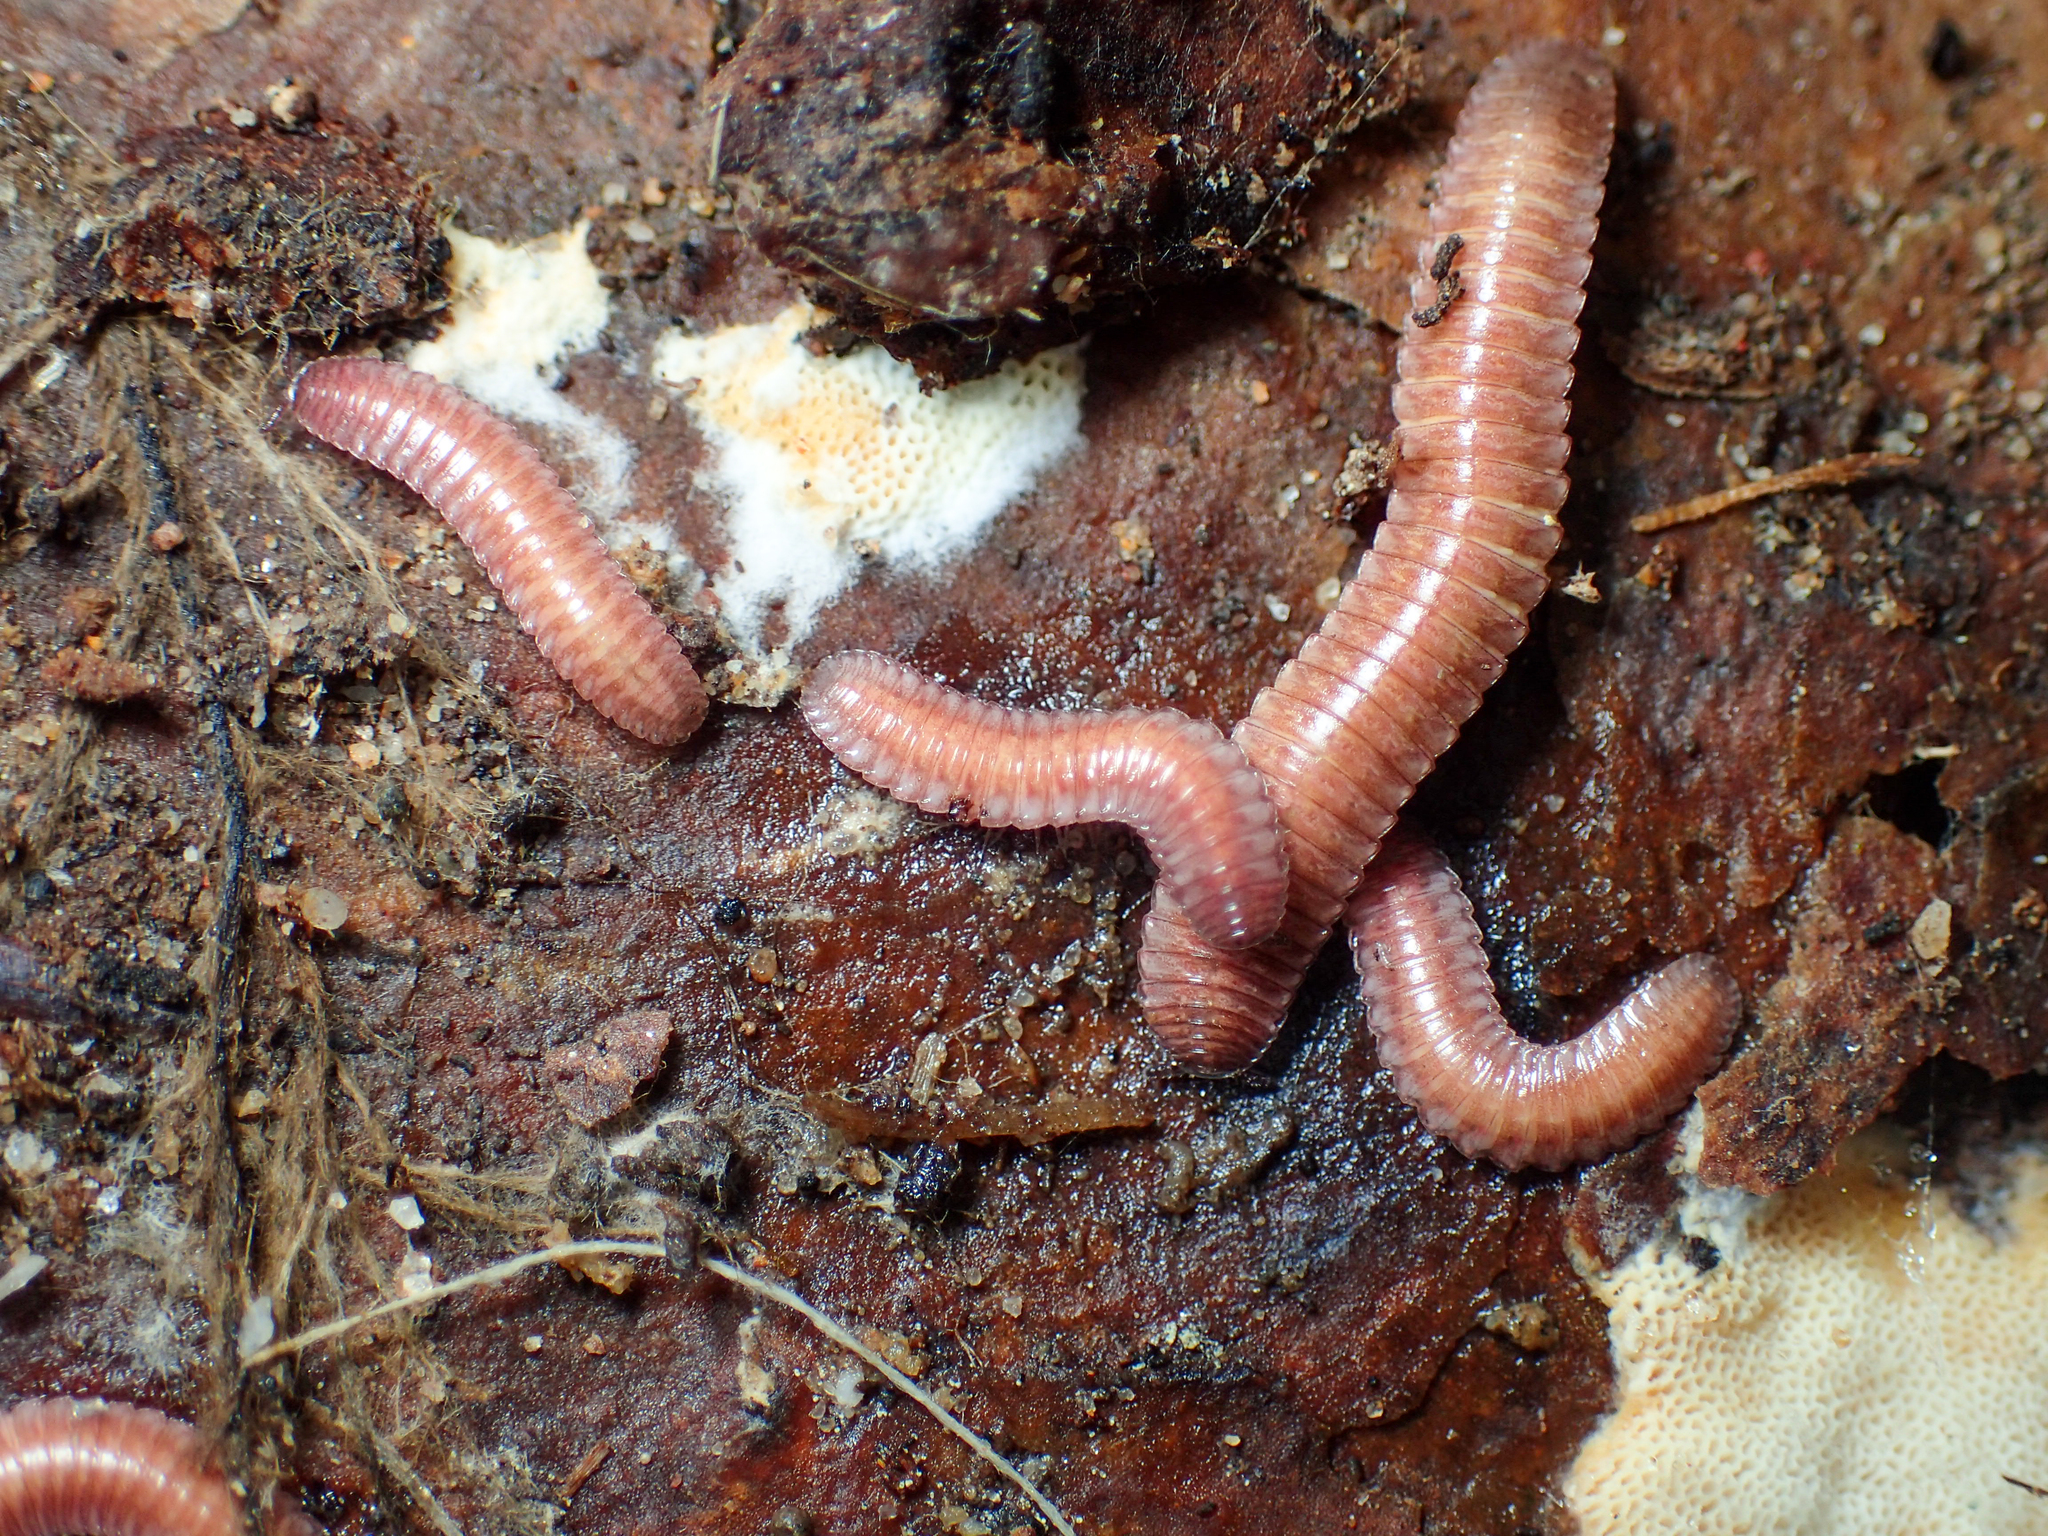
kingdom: Animalia
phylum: Arthropoda
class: Diplopoda
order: Polyzoniida
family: Hirudisomatidae
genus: Octoglena
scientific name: Octoglena gracilipes
